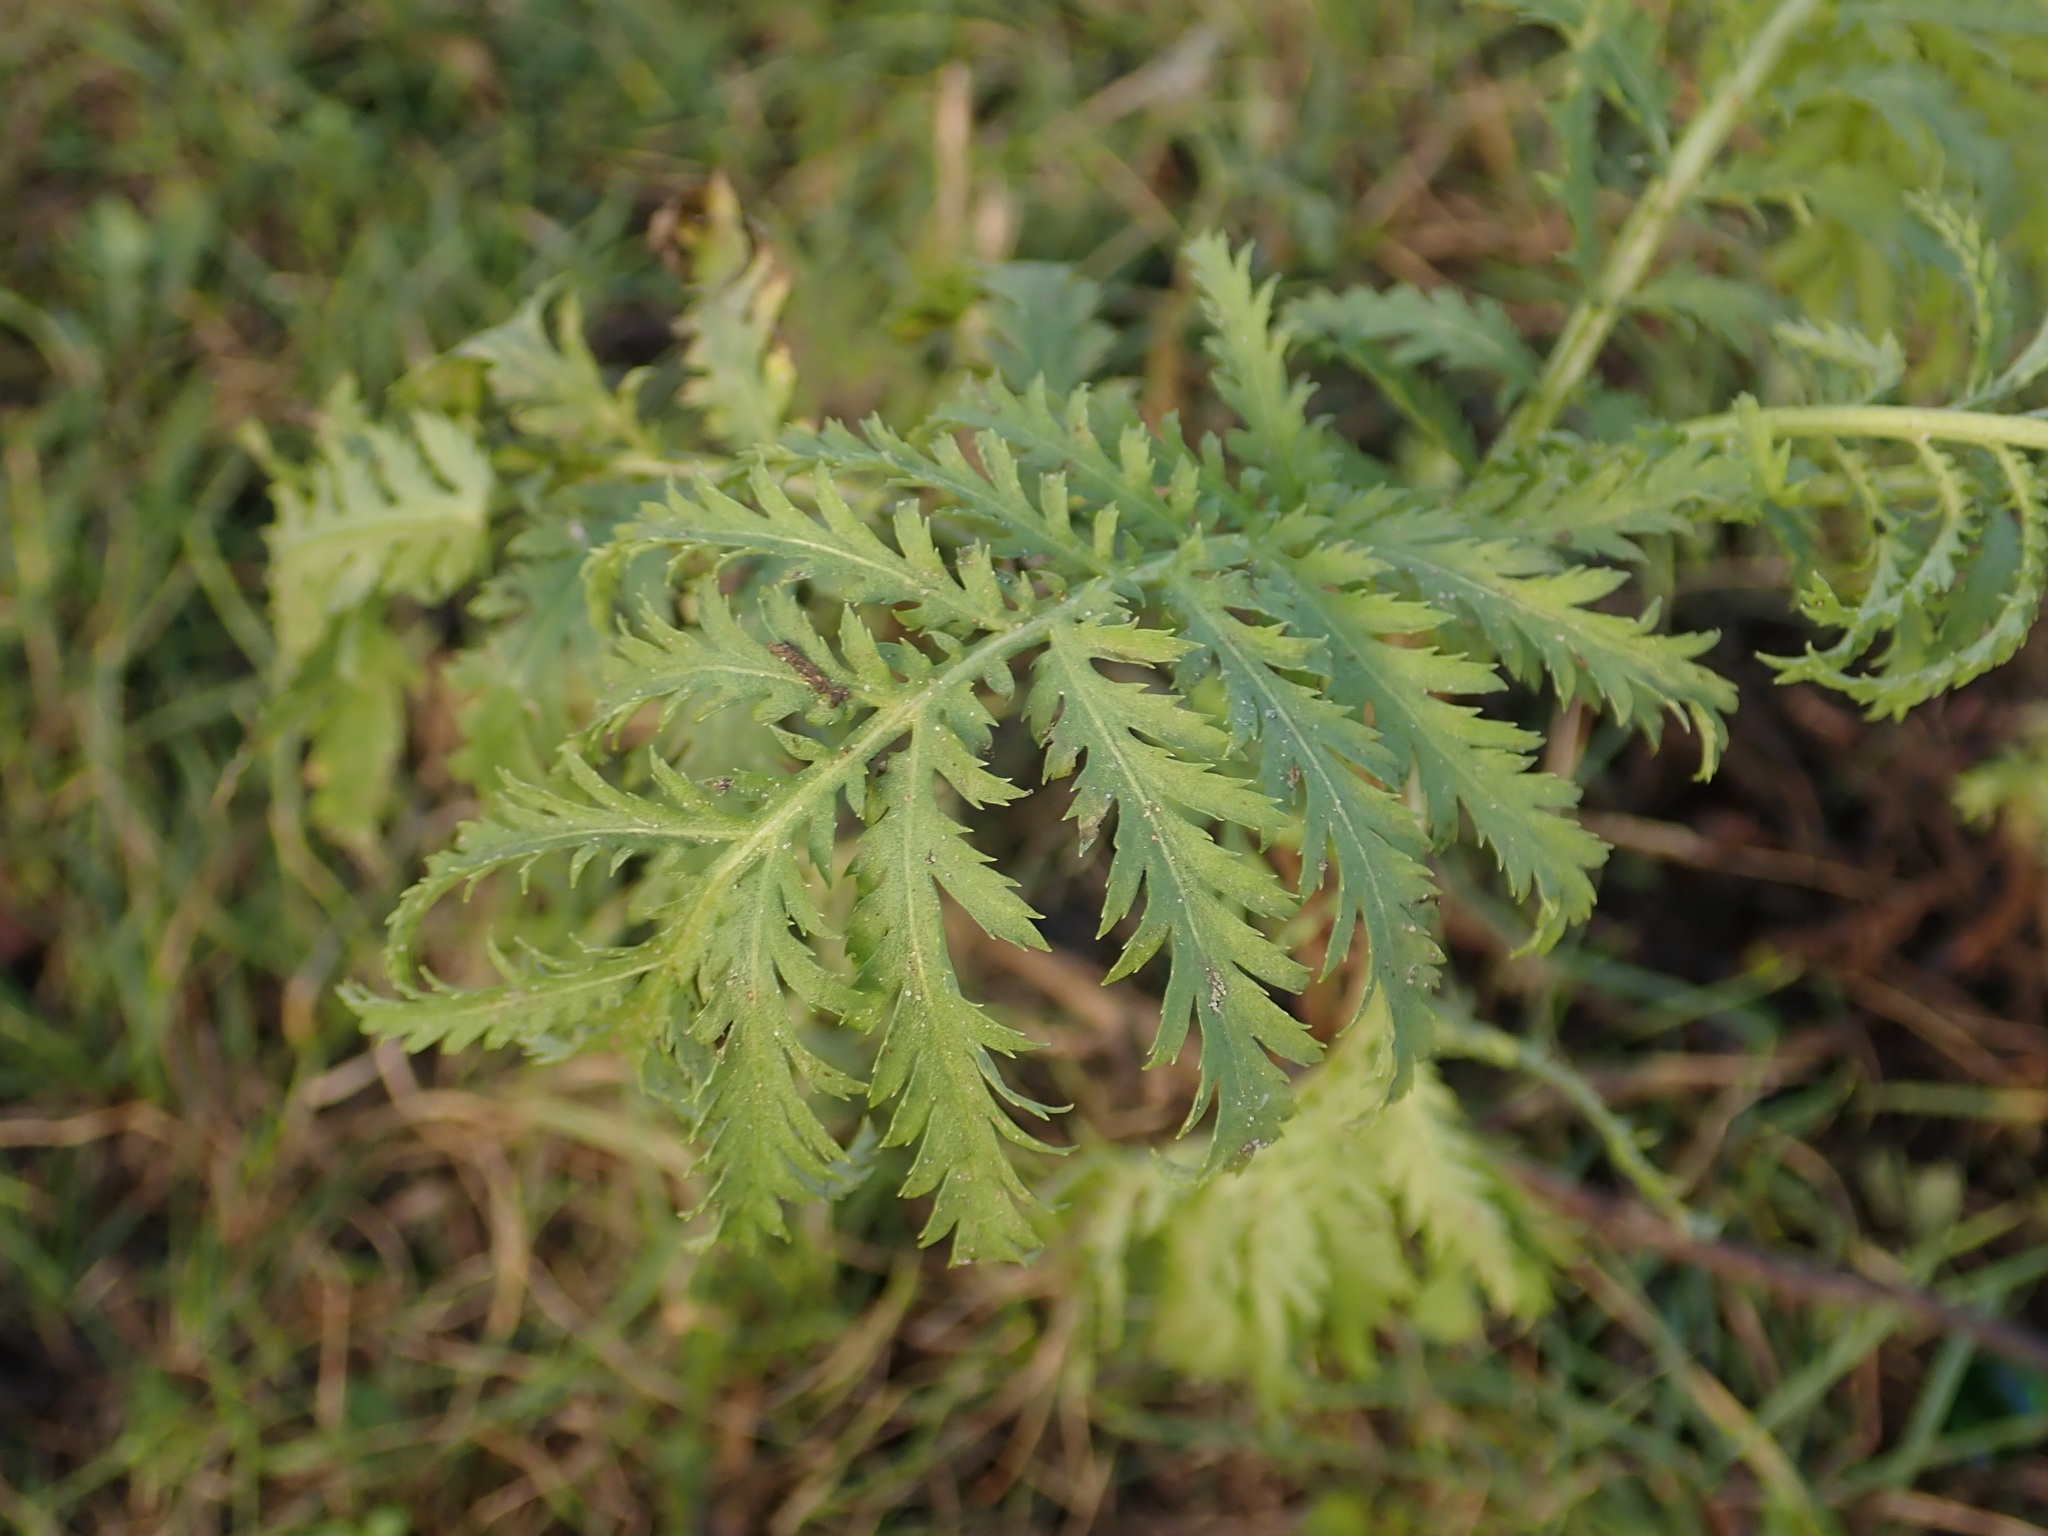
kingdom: Plantae
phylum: Tracheophyta
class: Magnoliopsida
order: Asterales
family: Asteraceae
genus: Tanacetum
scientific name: Tanacetum vulgare
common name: Common tansy
